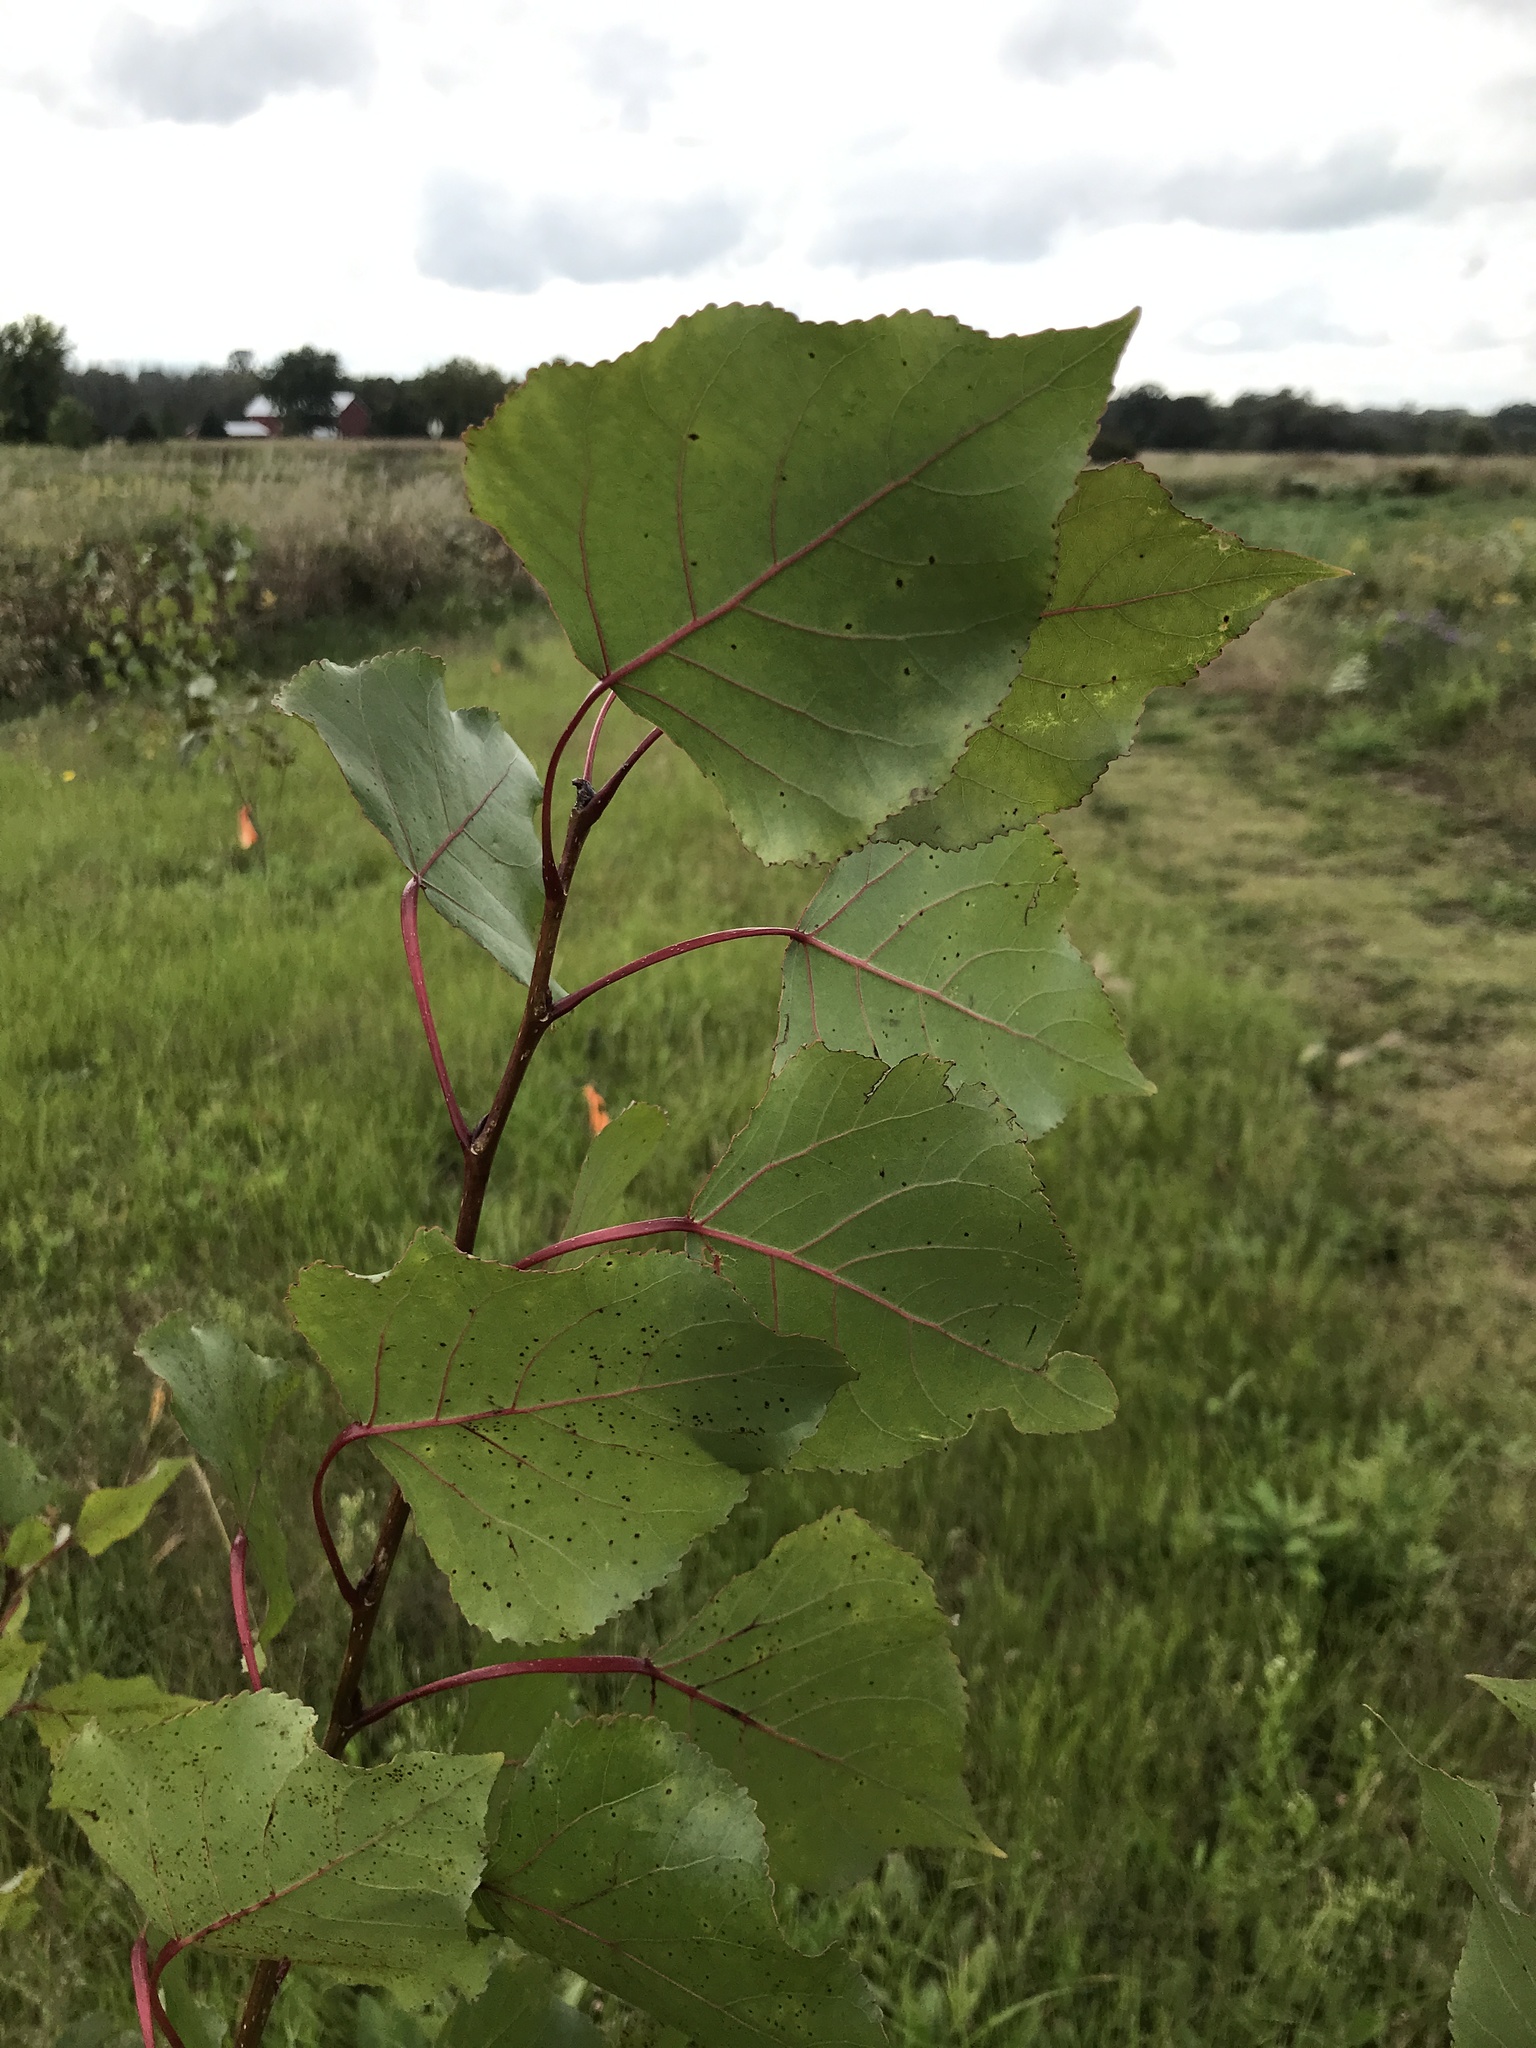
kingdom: Plantae
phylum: Tracheophyta
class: Magnoliopsida
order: Malpighiales
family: Salicaceae
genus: Populus
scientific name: Populus deltoides
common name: Eastern cottonwood
